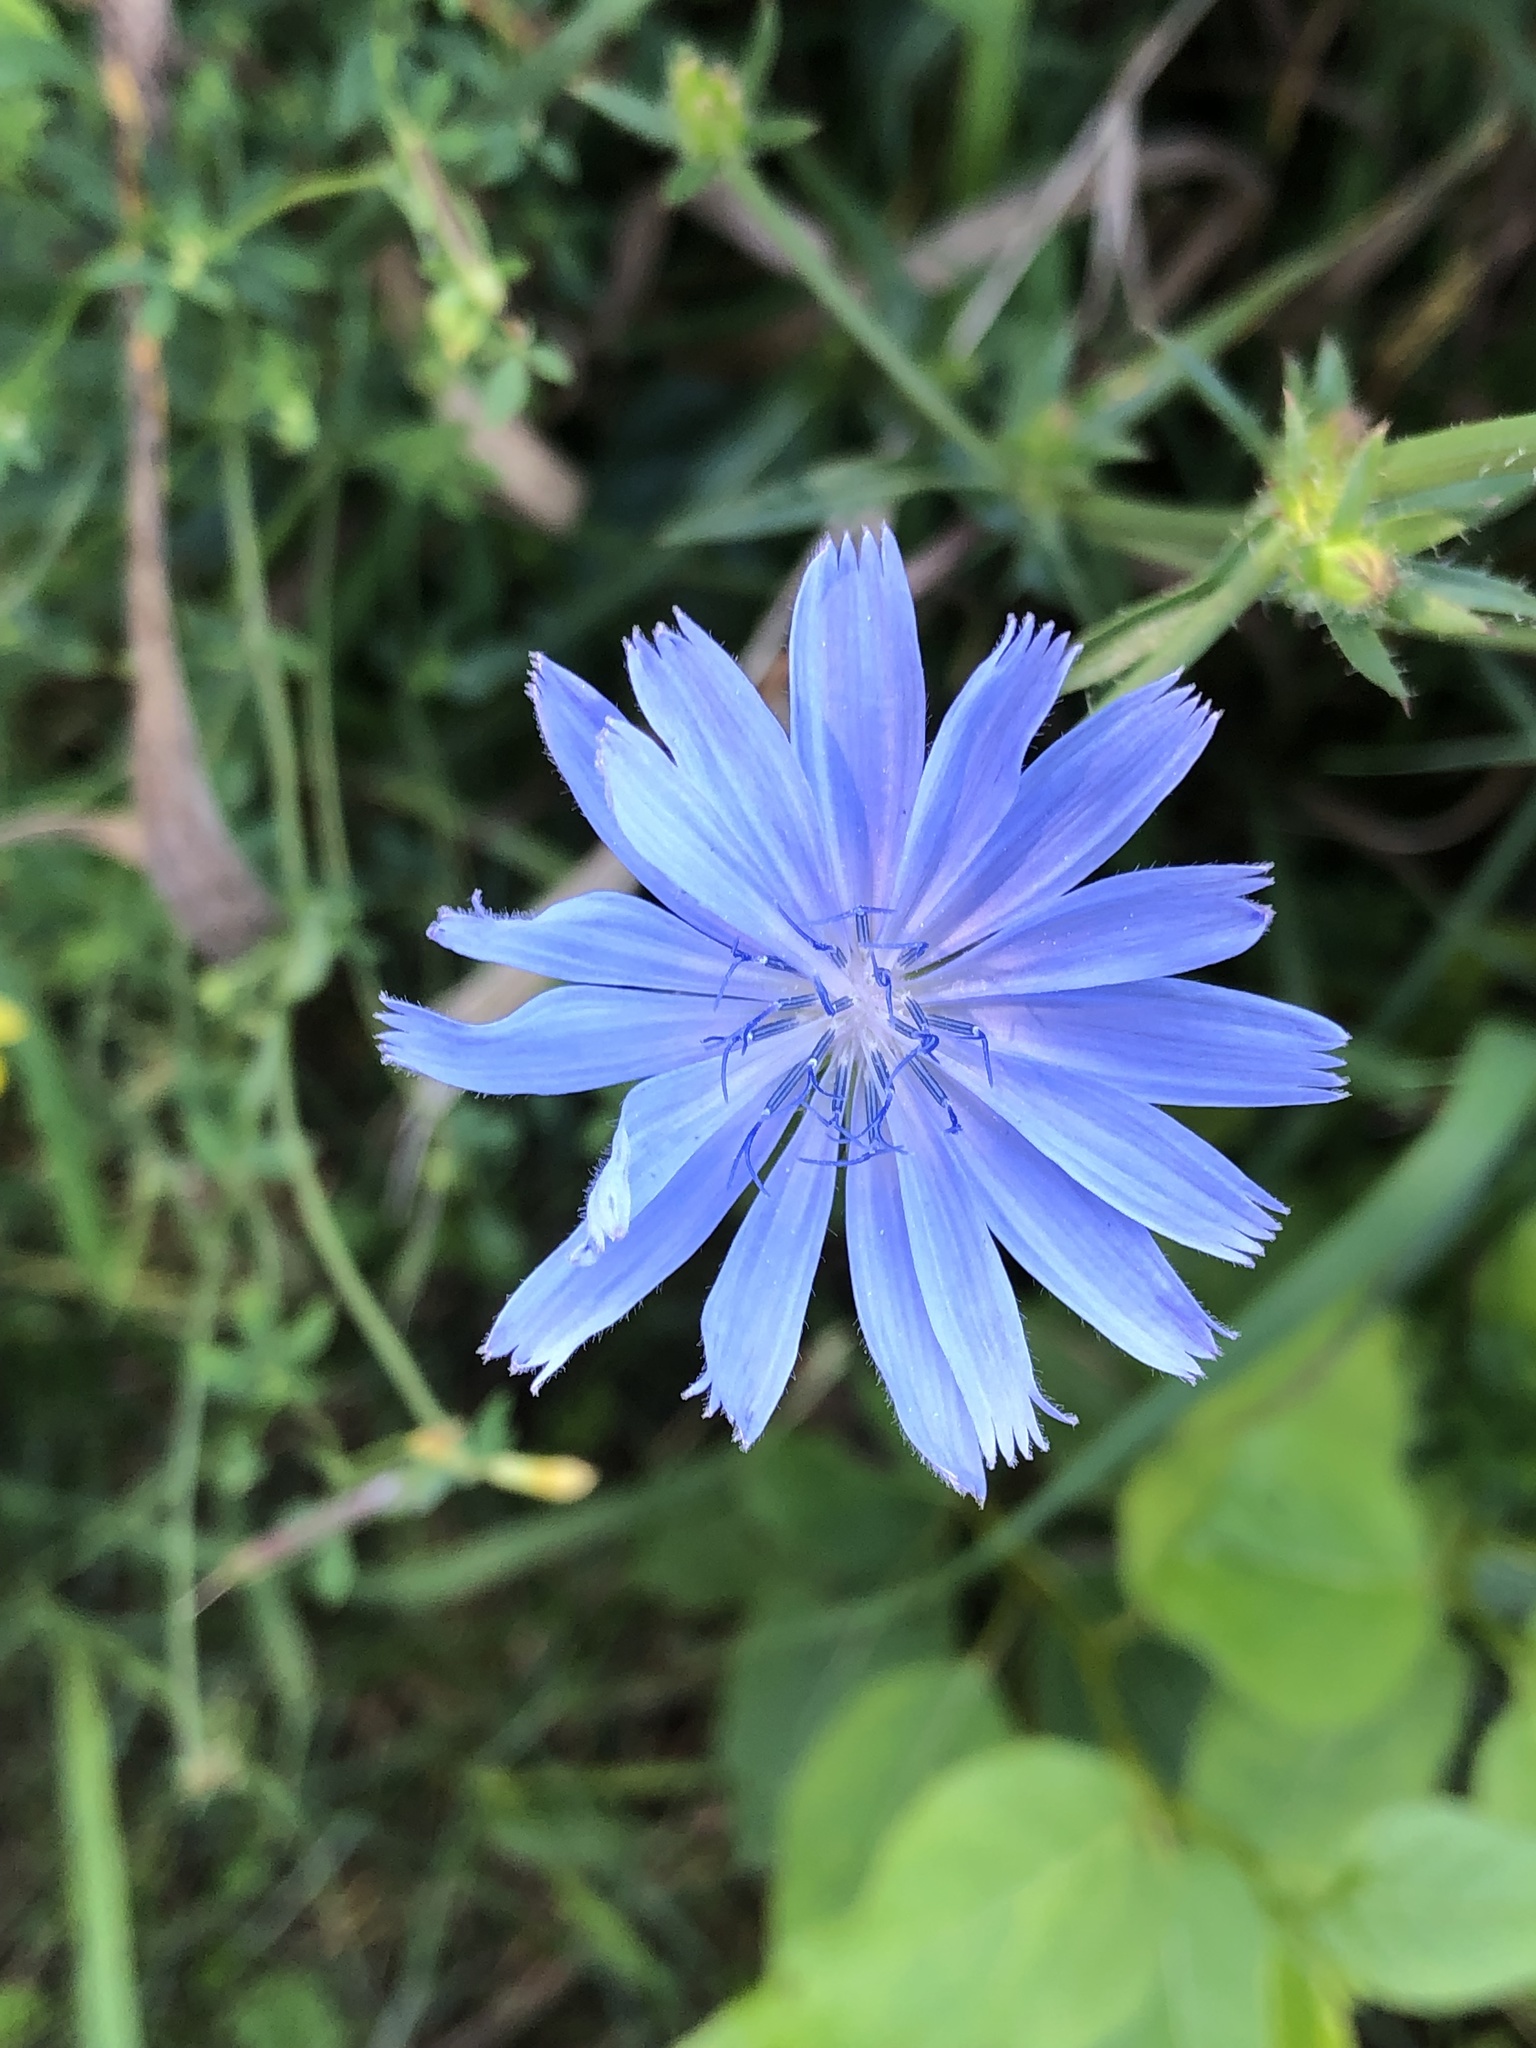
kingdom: Plantae
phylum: Tracheophyta
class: Magnoliopsida
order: Asterales
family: Asteraceae
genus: Cichorium
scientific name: Cichorium intybus
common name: Chicory
